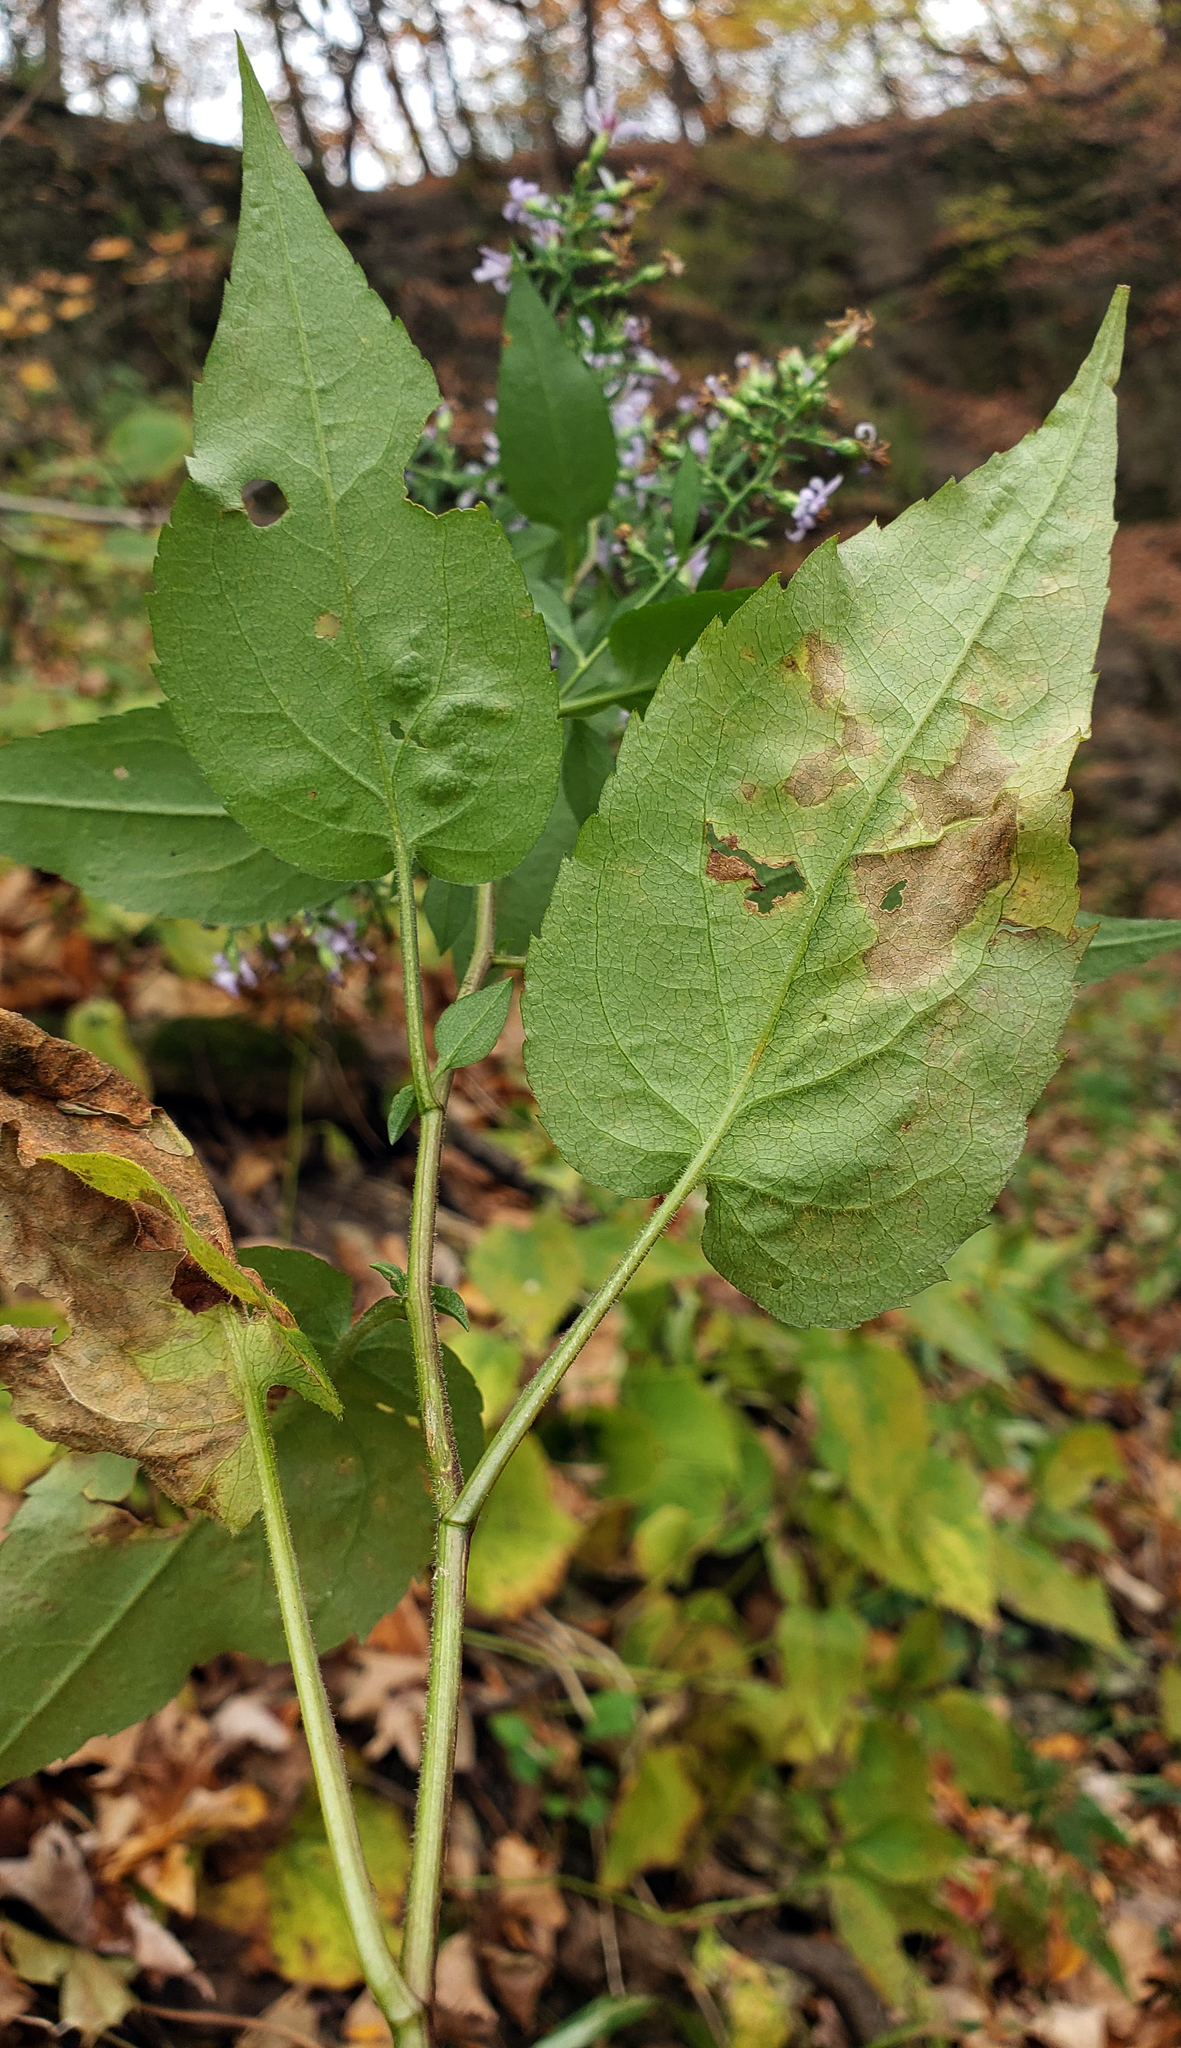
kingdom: Plantae
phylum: Tracheophyta
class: Magnoliopsida
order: Asterales
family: Asteraceae
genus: Symphyotrichum
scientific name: Symphyotrichum cordifolium
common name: Beeweed
